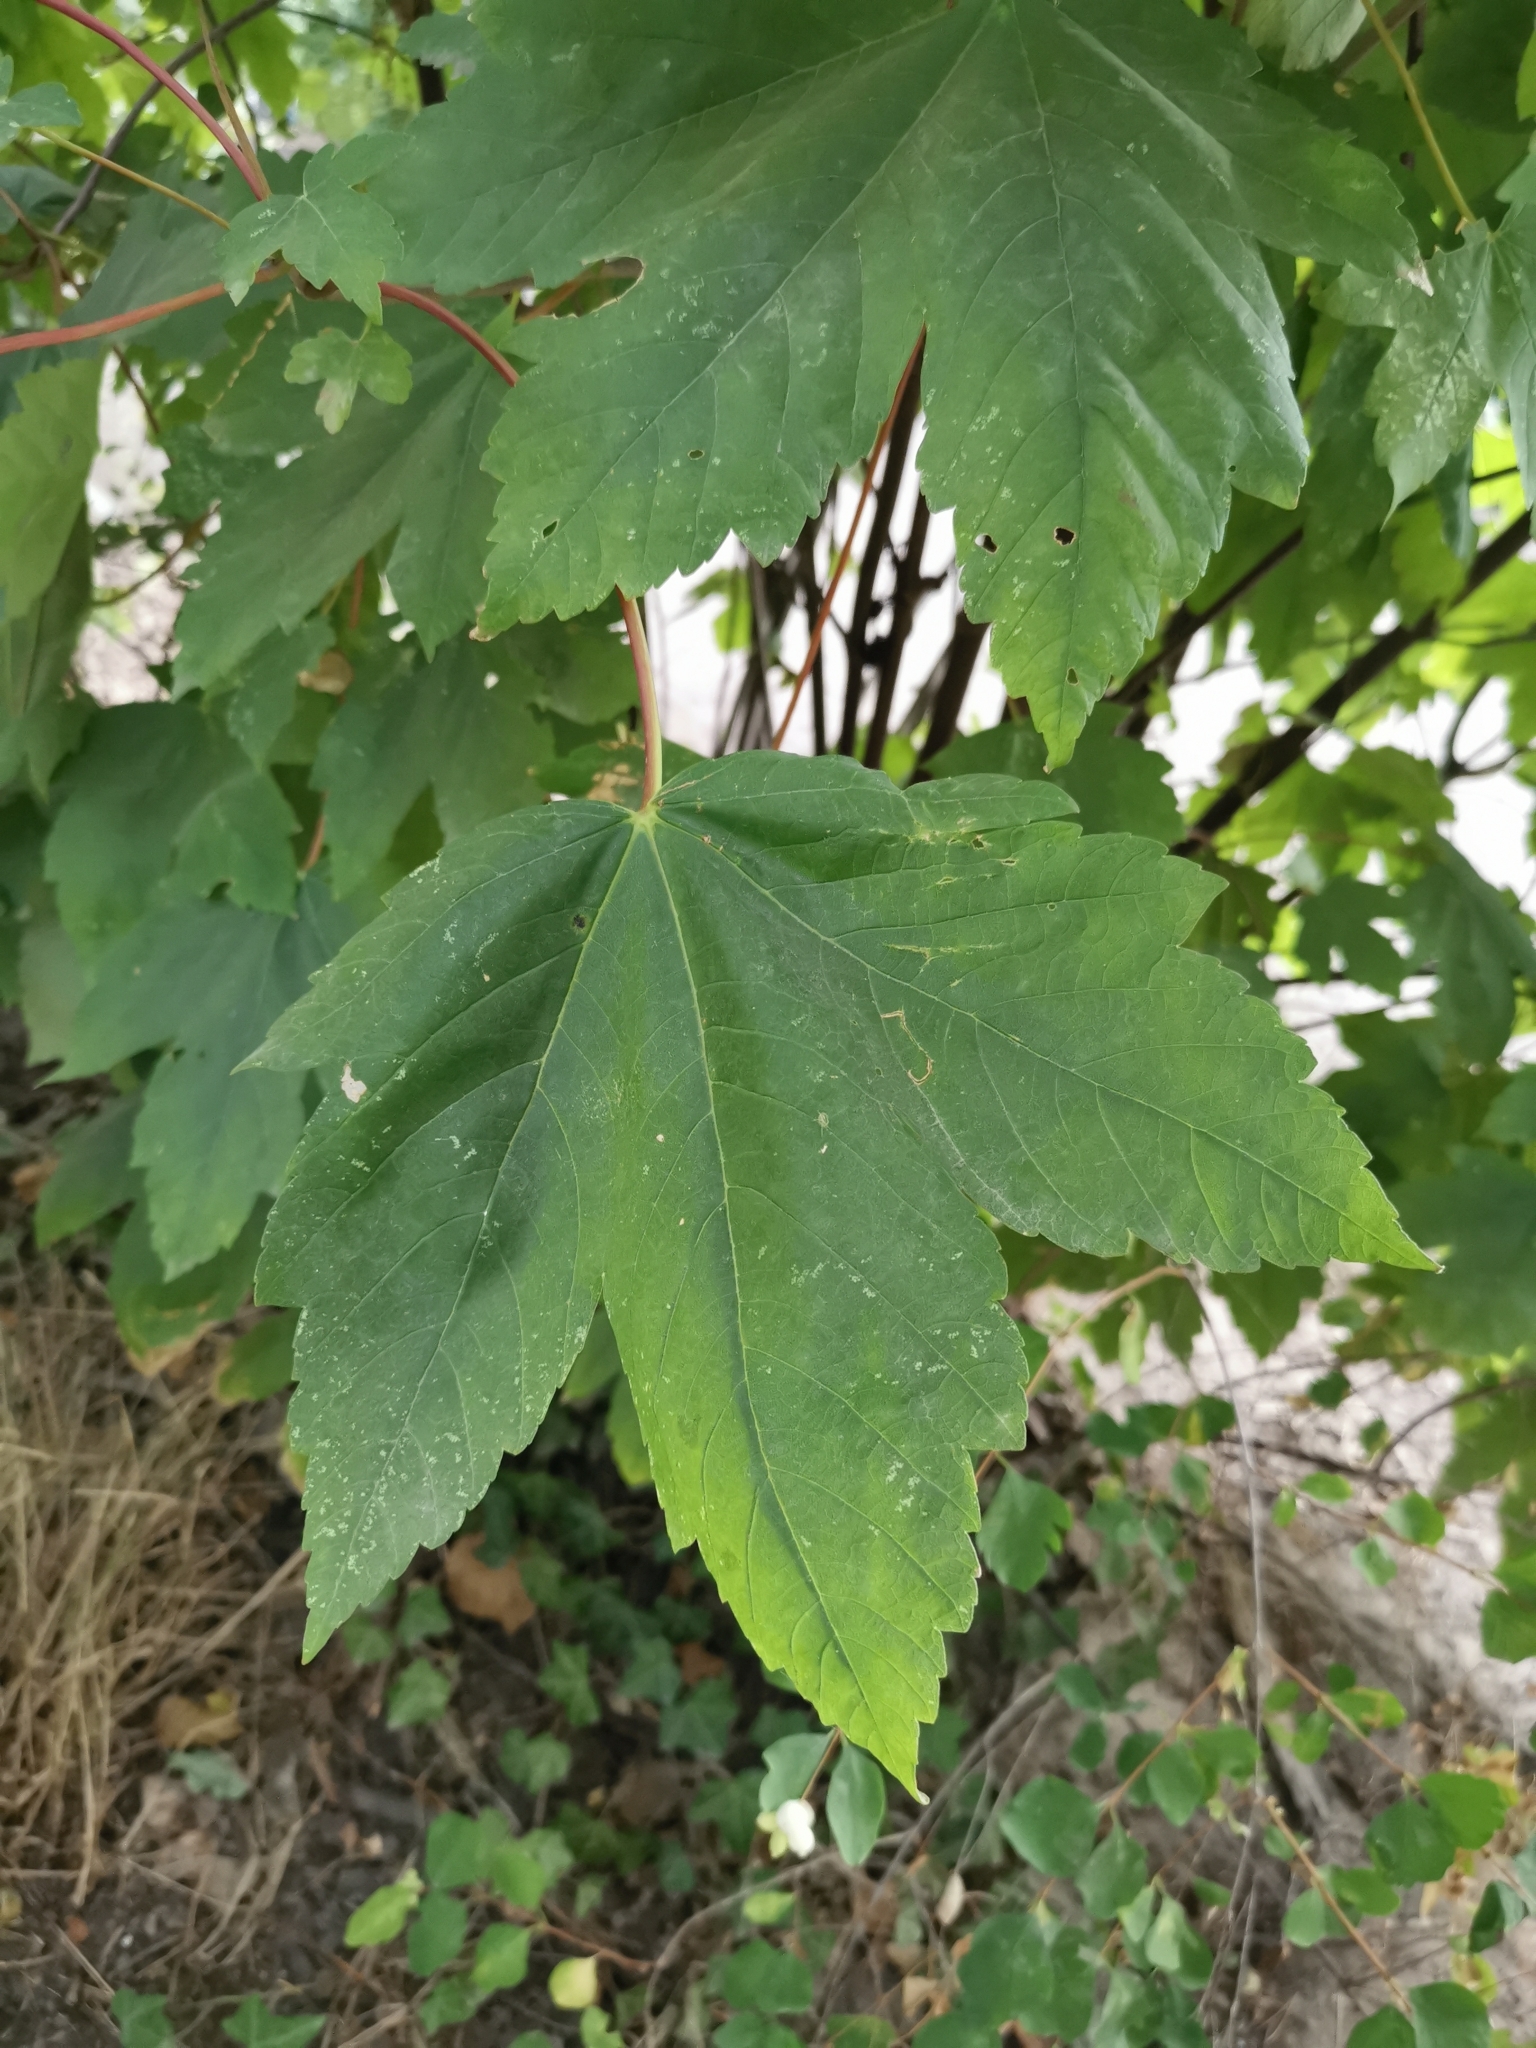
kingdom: Plantae
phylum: Tracheophyta
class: Magnoliopsida
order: Sapindales
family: Sapindaceae
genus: Acer
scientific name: Acer pseudoplatanus
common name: Sycamore
